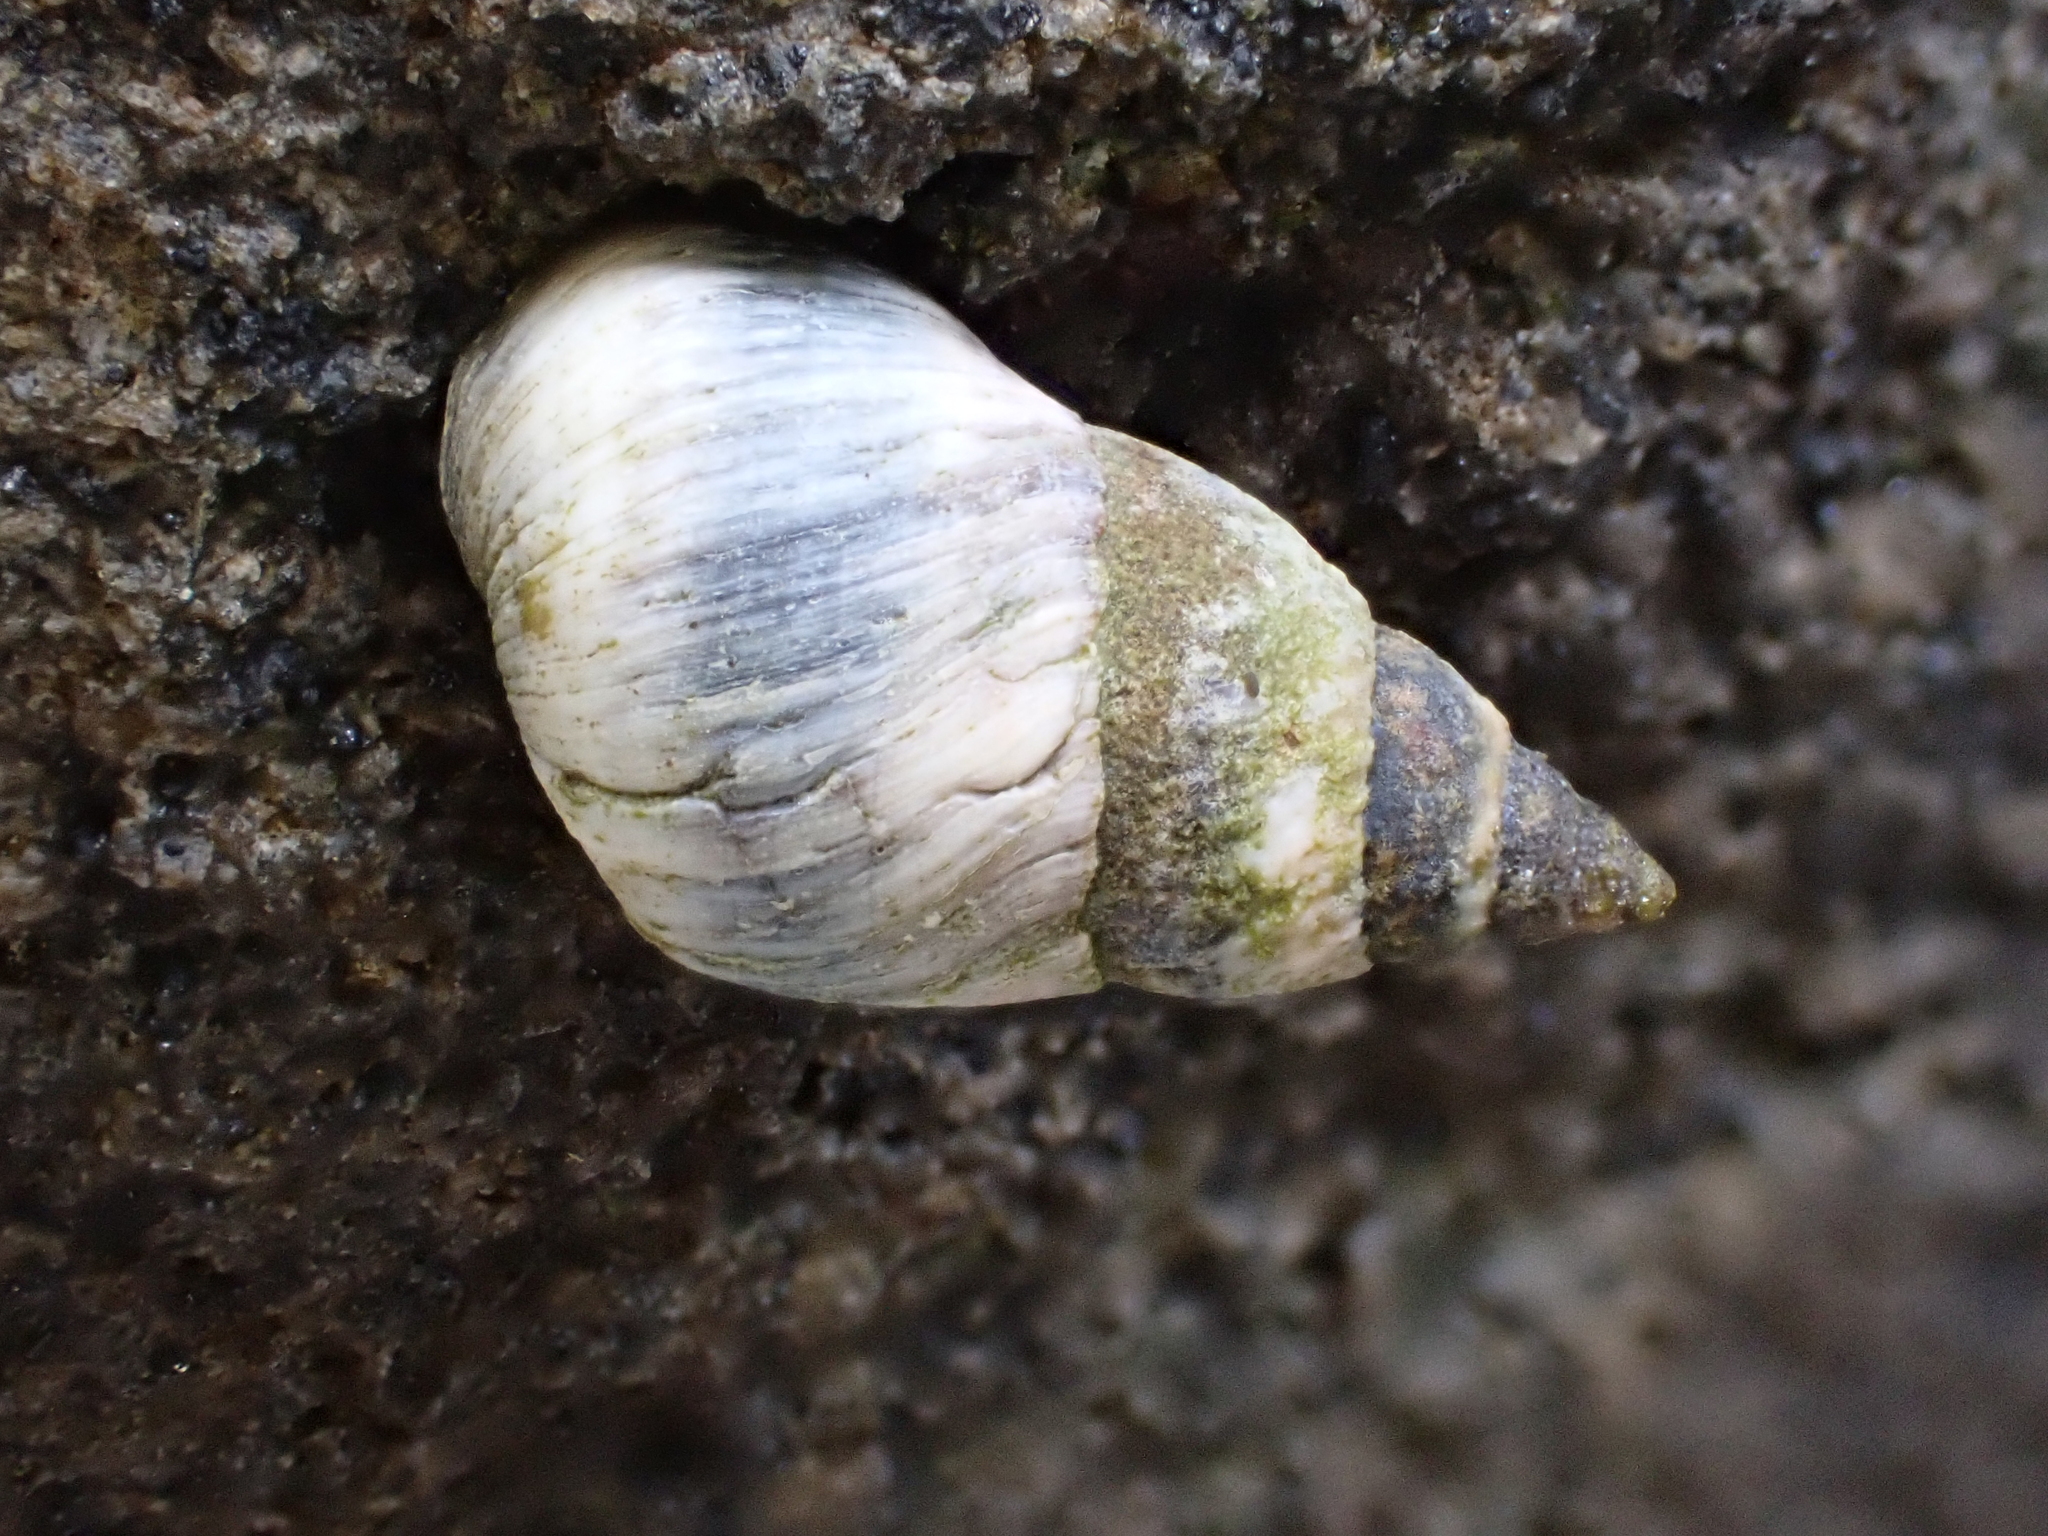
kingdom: Animalia
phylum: Mollusca
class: Gastropoda
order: Littorinimorpha
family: Littorinidae
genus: Austrolittorina
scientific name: Austrolittorina antipodum
